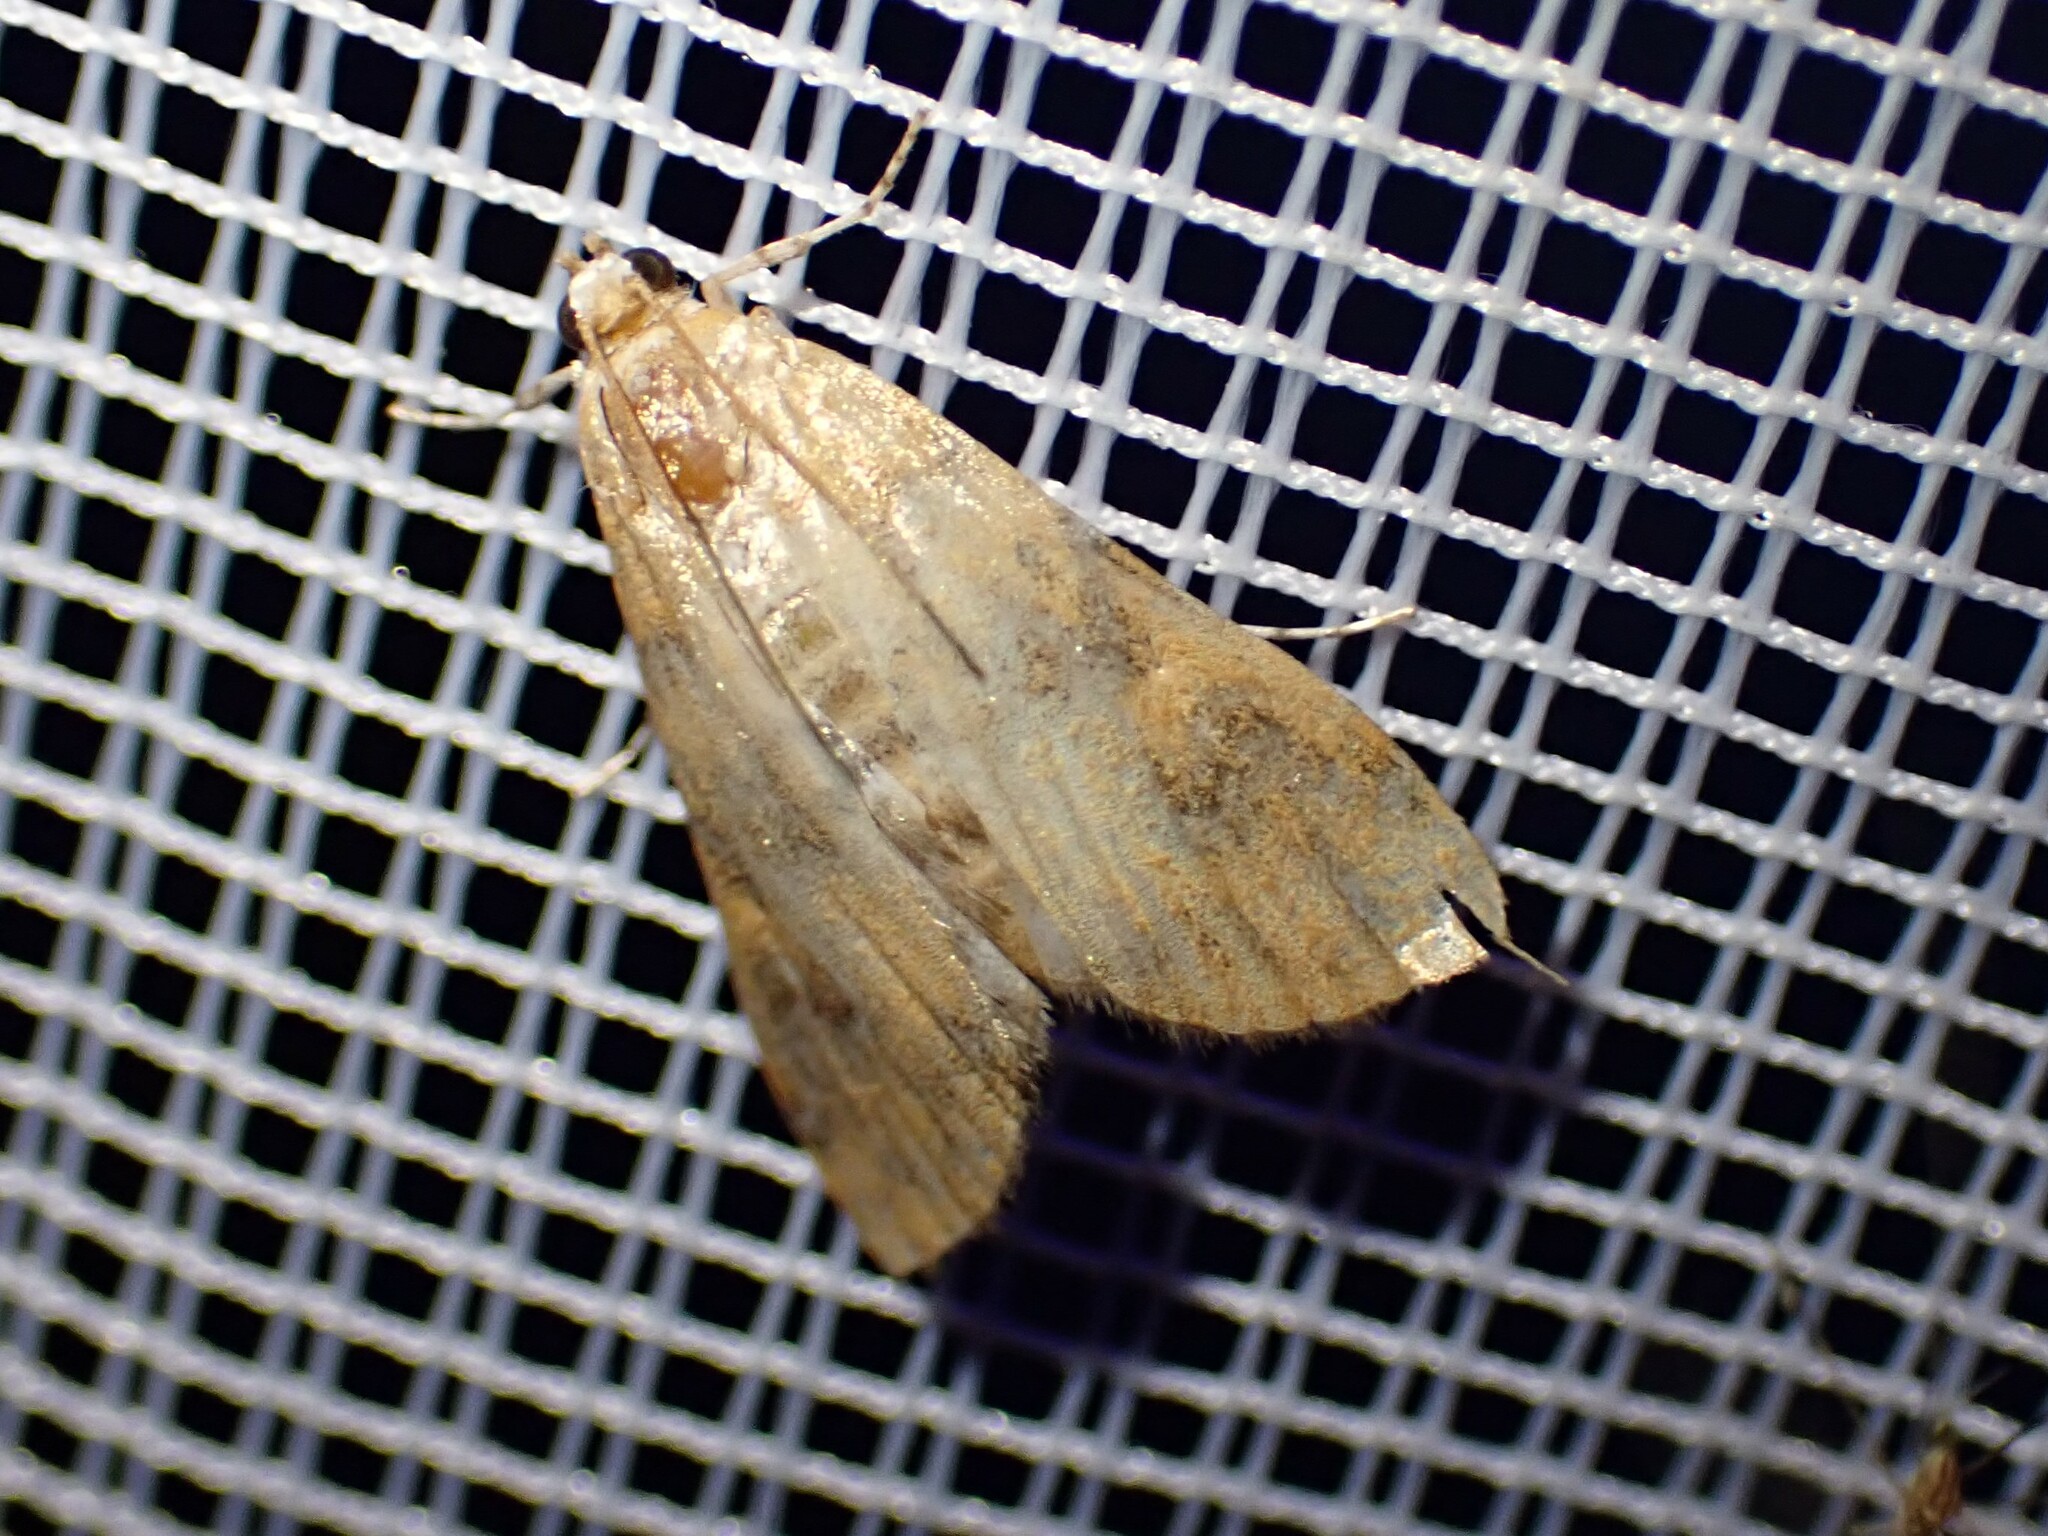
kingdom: Animalia
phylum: Arthropoda
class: Insecta
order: Lepidoptera
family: Crambidae
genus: Elophila
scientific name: Elophila gyralis
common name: Waterlily borer moth
